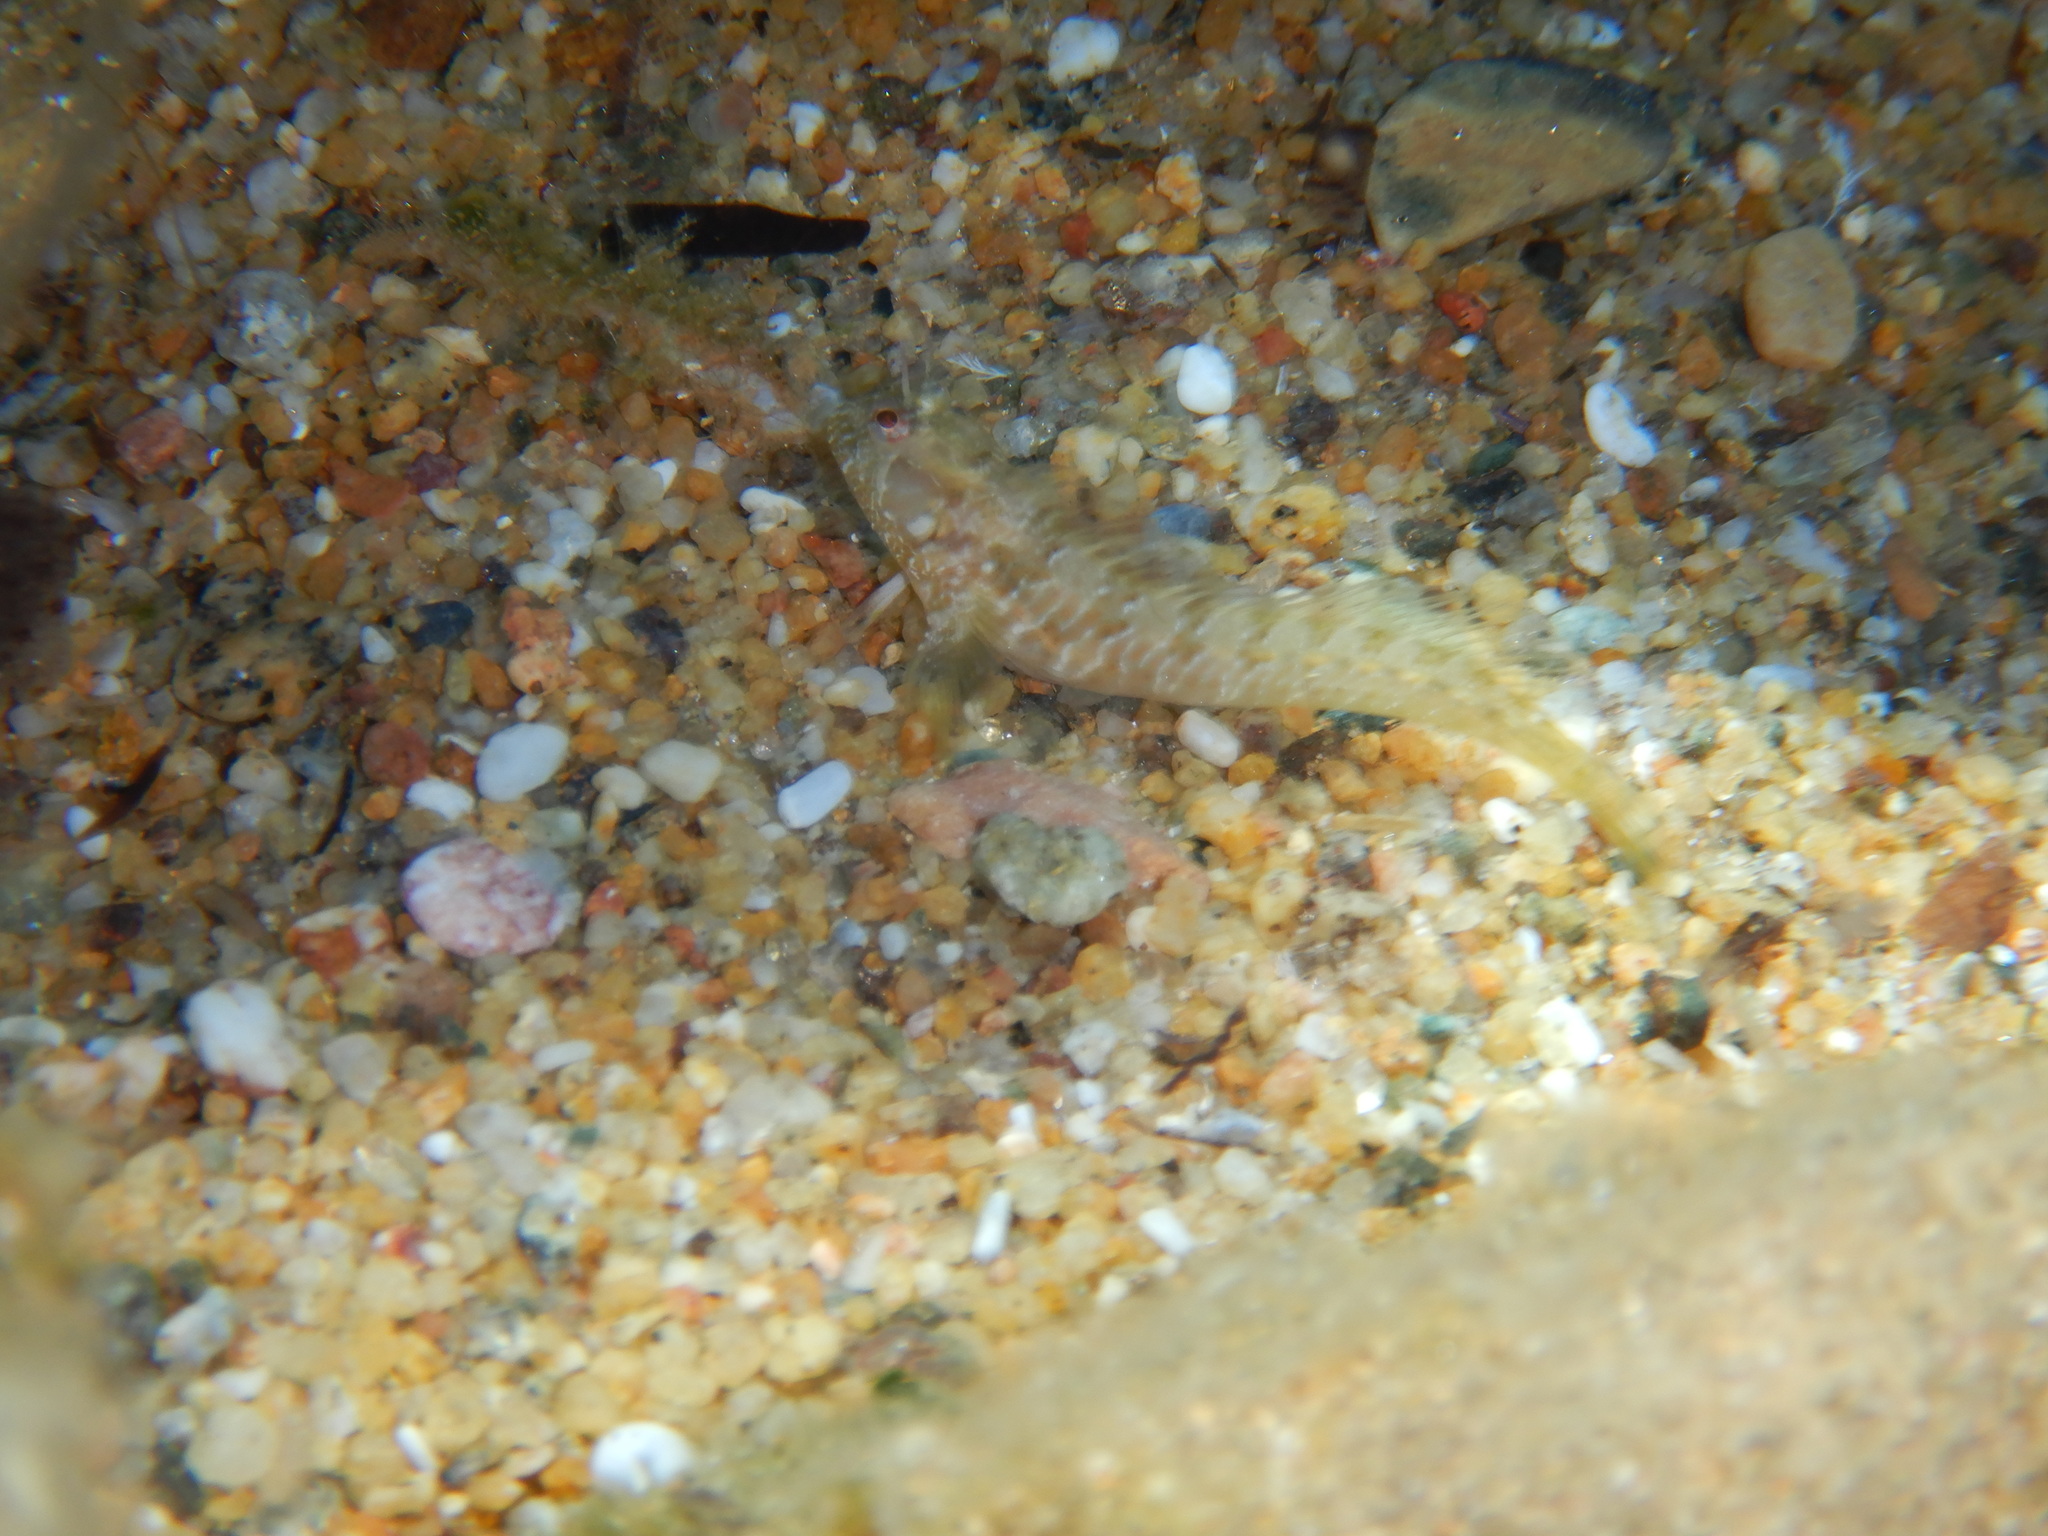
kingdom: Animalia
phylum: Chordata
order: Perciformes
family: Blenniidae
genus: Parablennius
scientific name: Parablennius incognitus
